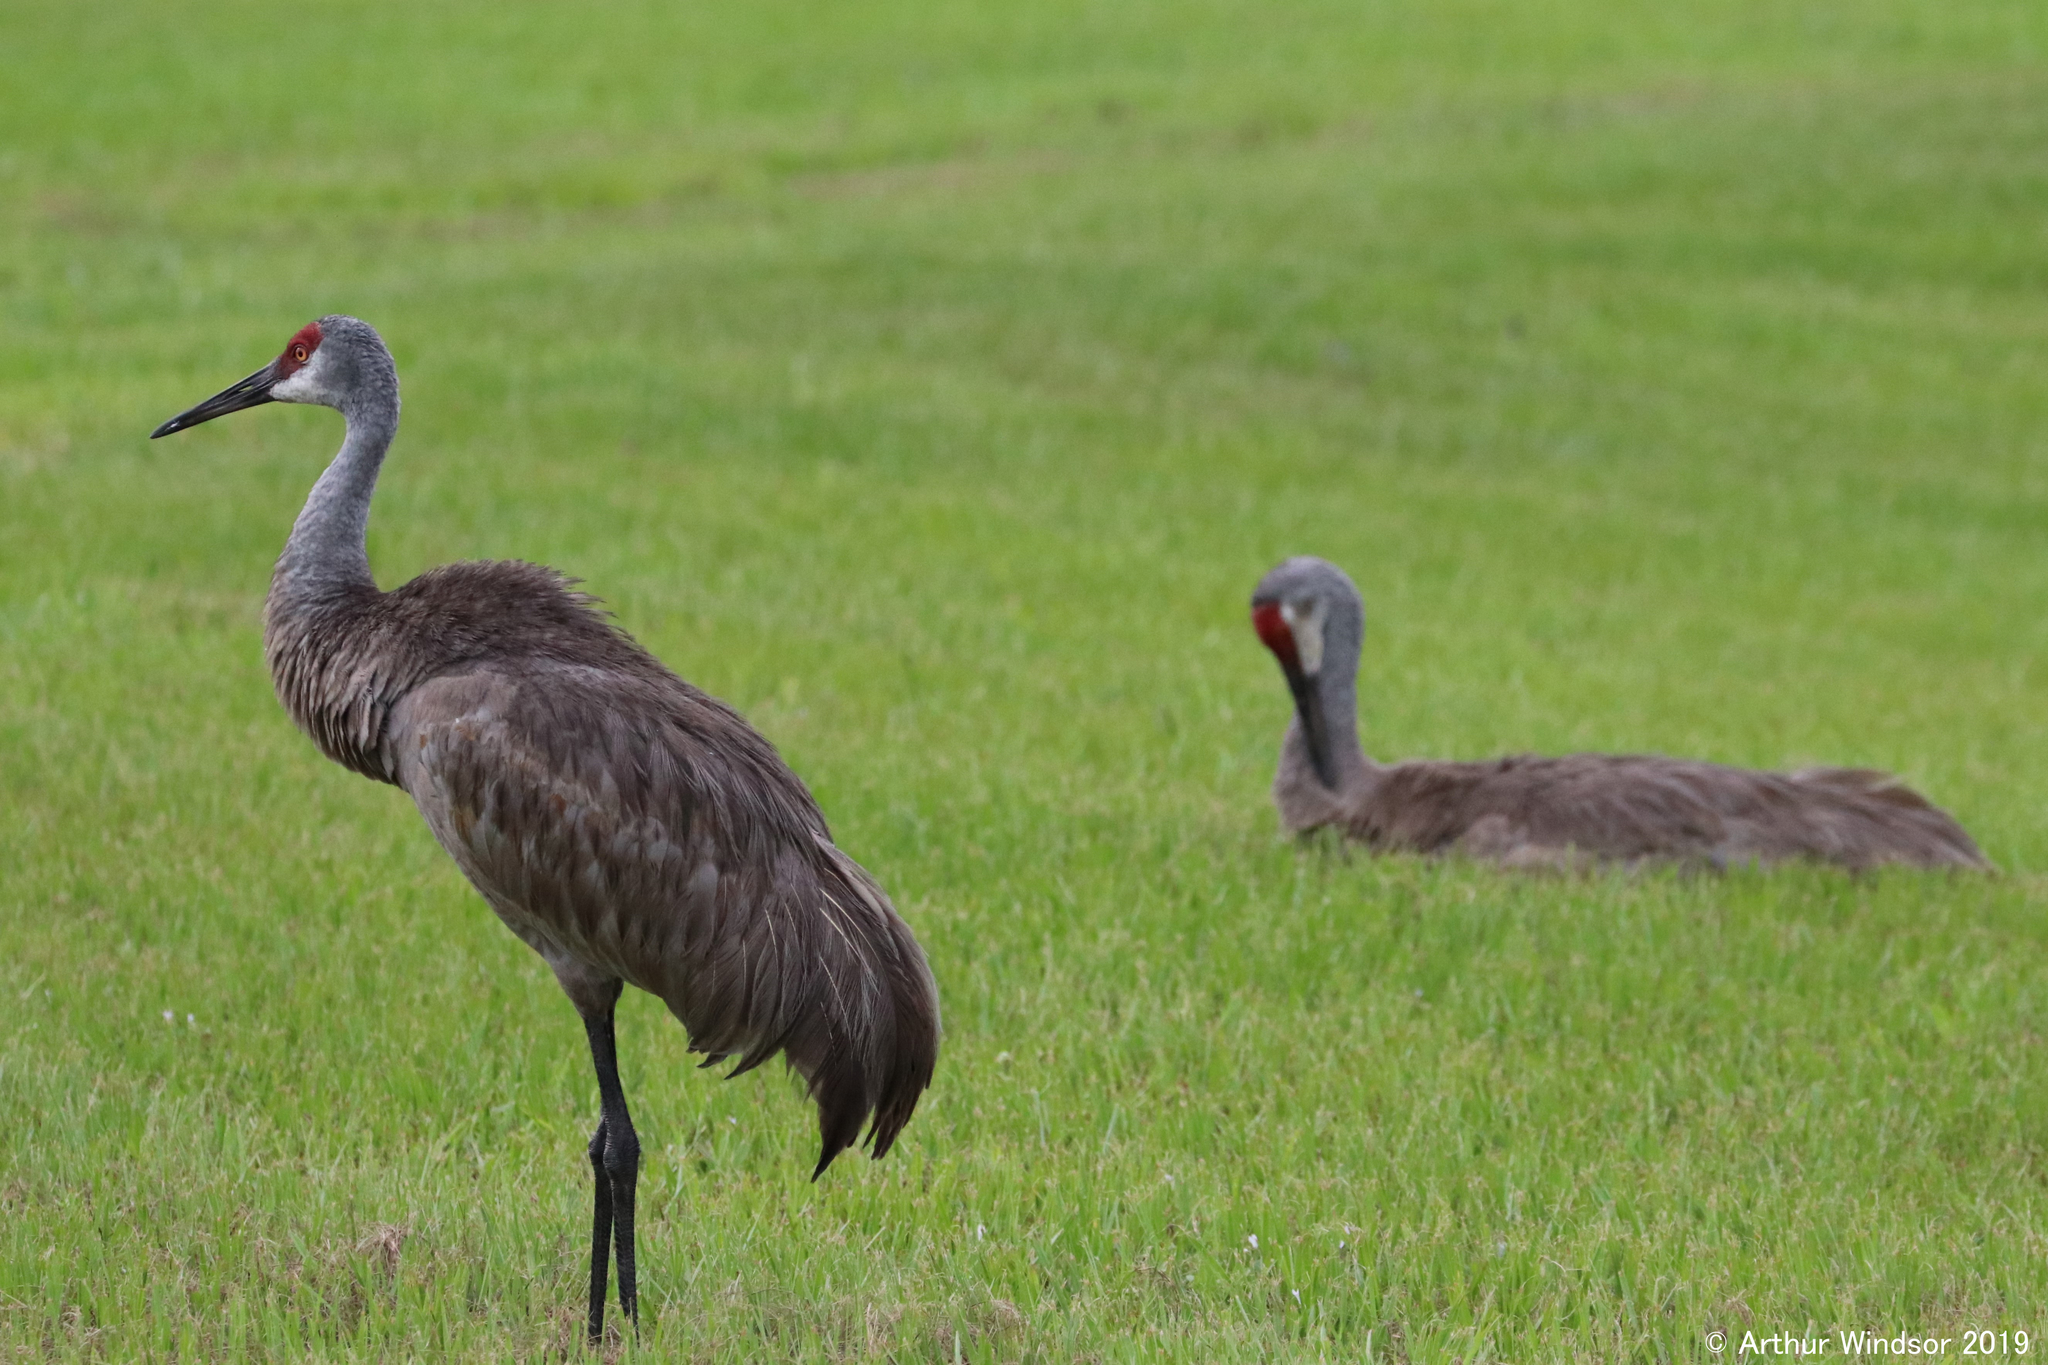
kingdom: Animalia
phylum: Chordata
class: Aves
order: Gruiformes
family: Gruidae
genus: Grus
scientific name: Grus canadensis
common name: Sandhill crane
